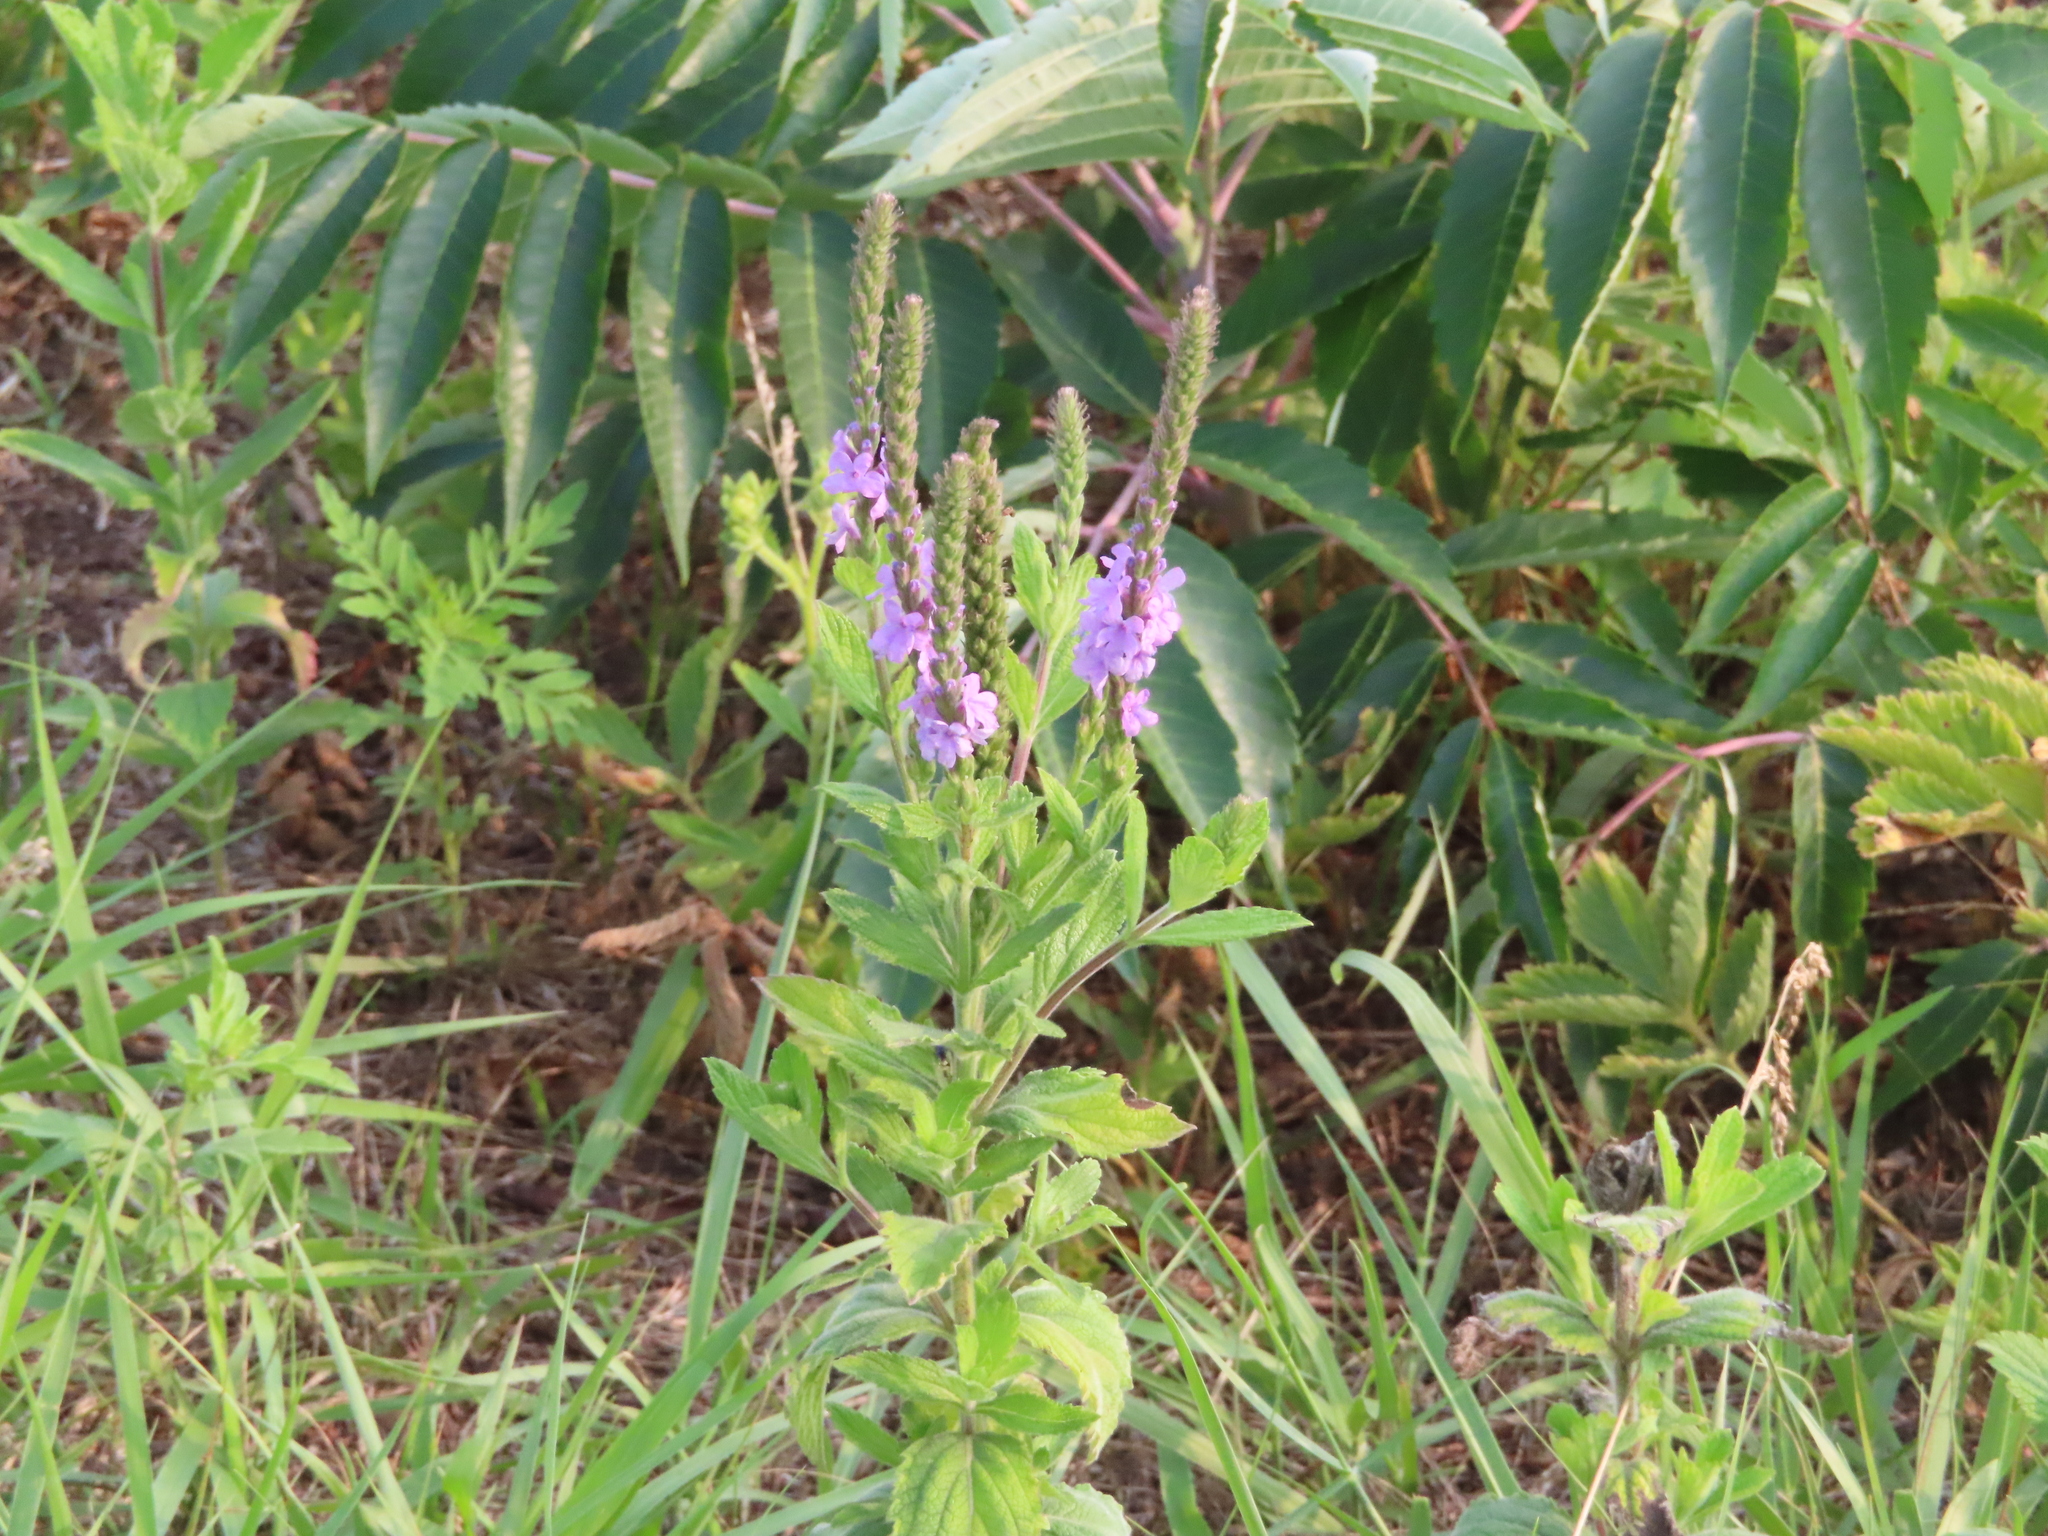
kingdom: Plantae
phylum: Tracheophyta
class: Magnoliopsida
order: Lamiales
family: Verbenaceae
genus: Verbena
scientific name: Verbena stricta
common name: Hoary vervain
